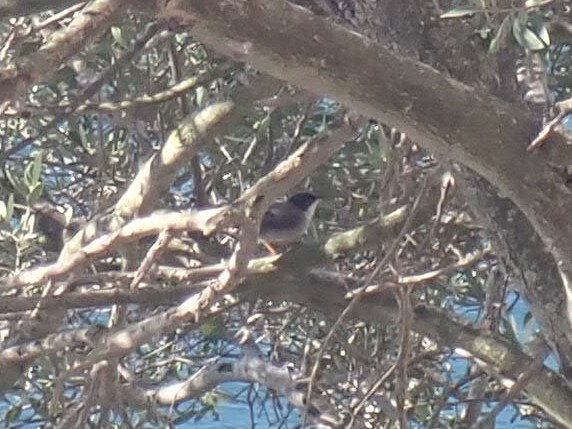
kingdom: Animalia
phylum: Chordata
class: Aves
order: Passeriformes
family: Sylviidae
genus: Curruca
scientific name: Curruca melanocephala
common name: Sardinian warbler
